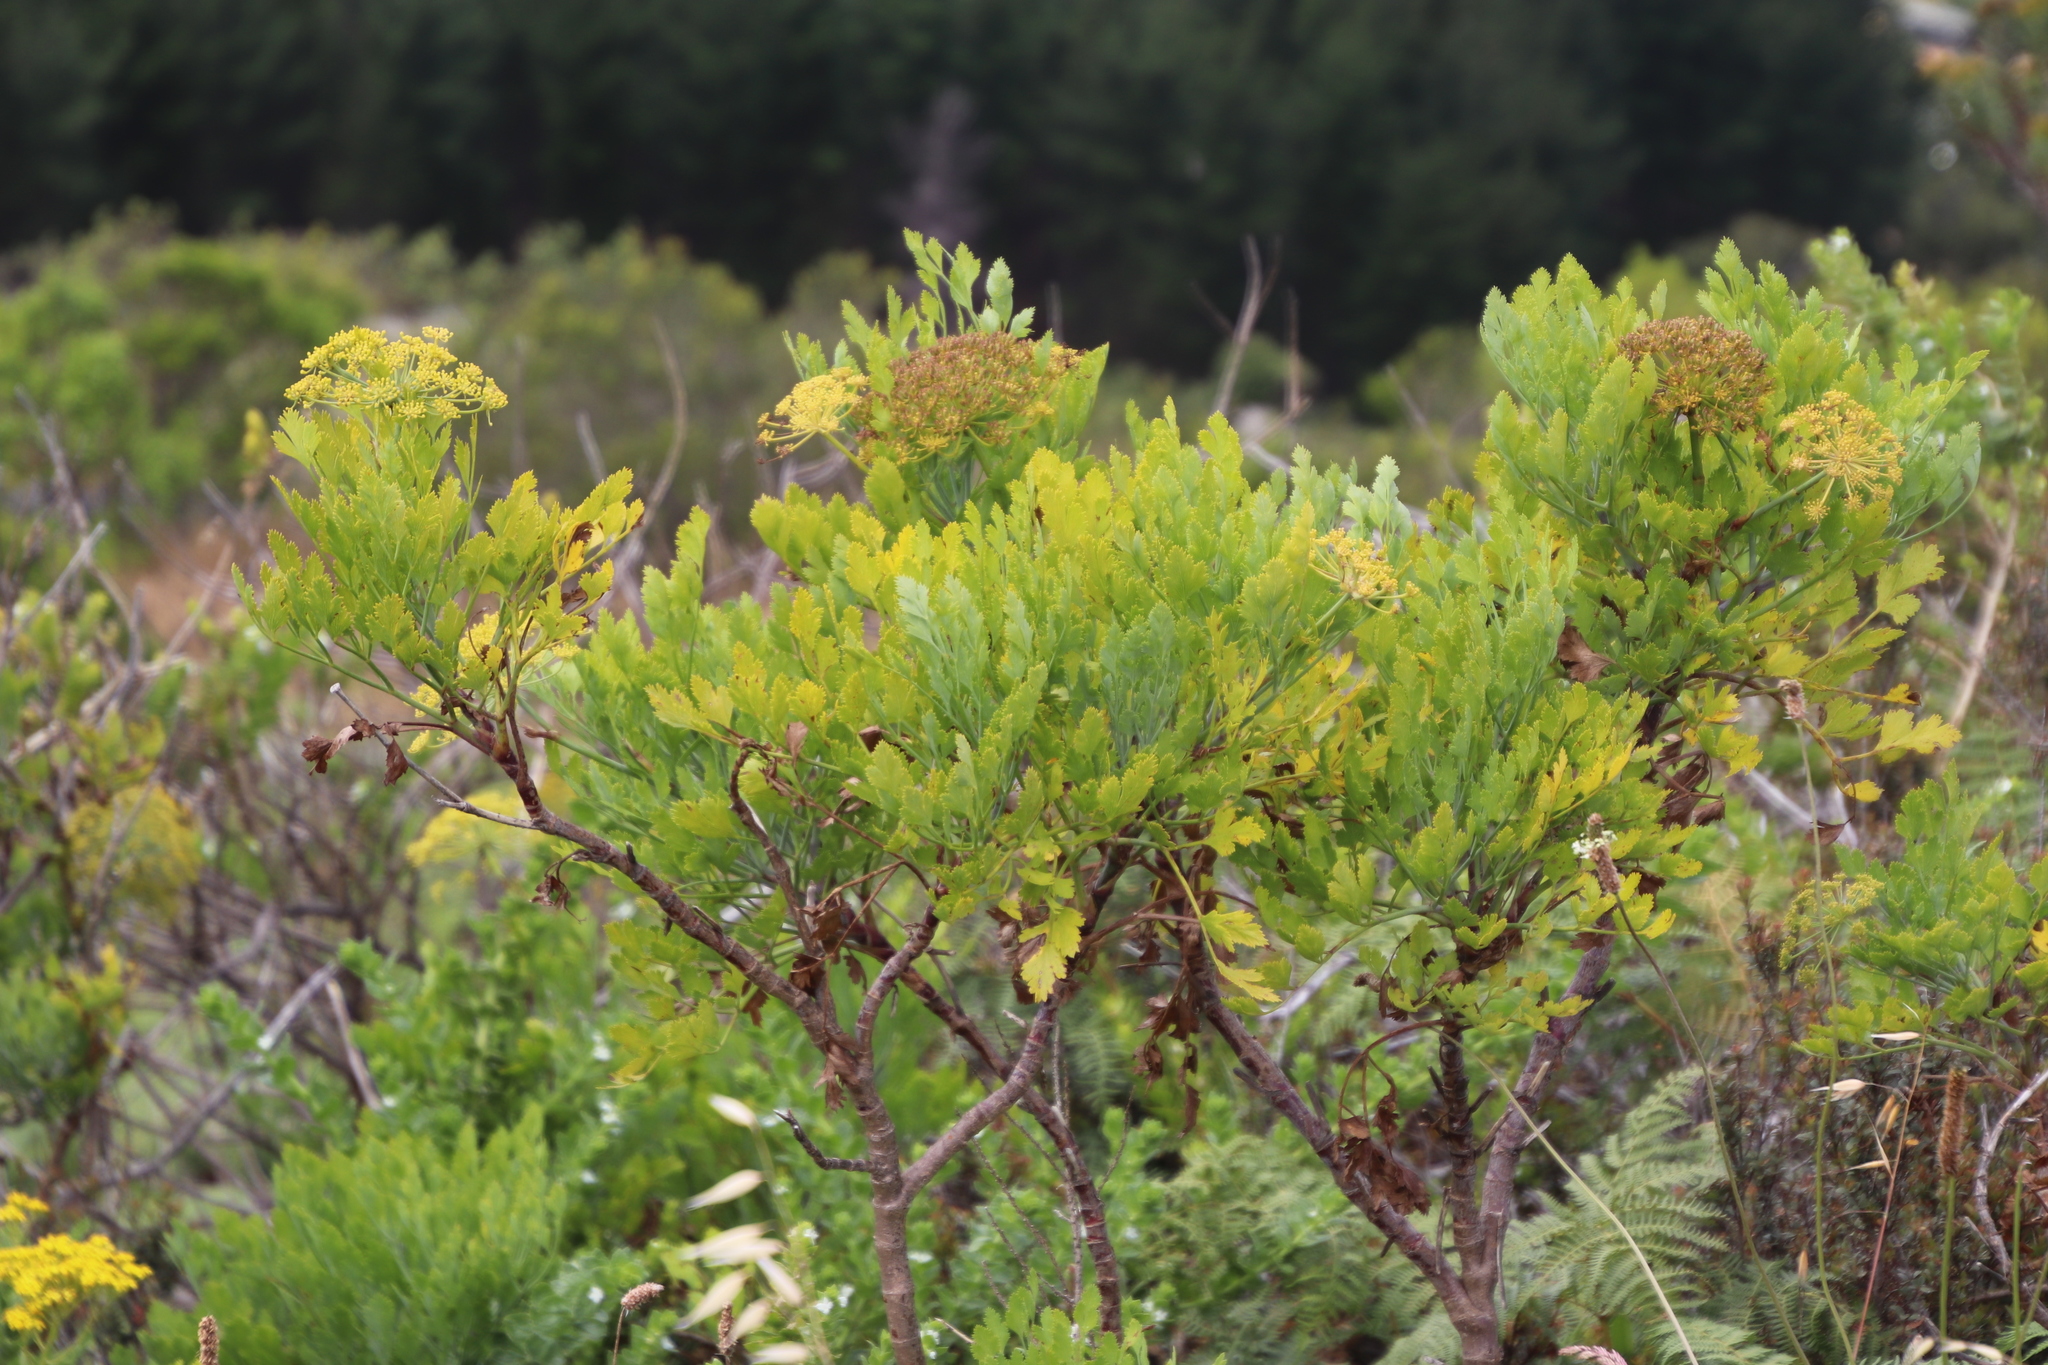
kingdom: Plantae
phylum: Tracheophyta
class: Magnoliopsida
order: Apiales
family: Apiaceae
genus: Notobubon
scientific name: Notobubon galbanum
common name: Blisterbush
